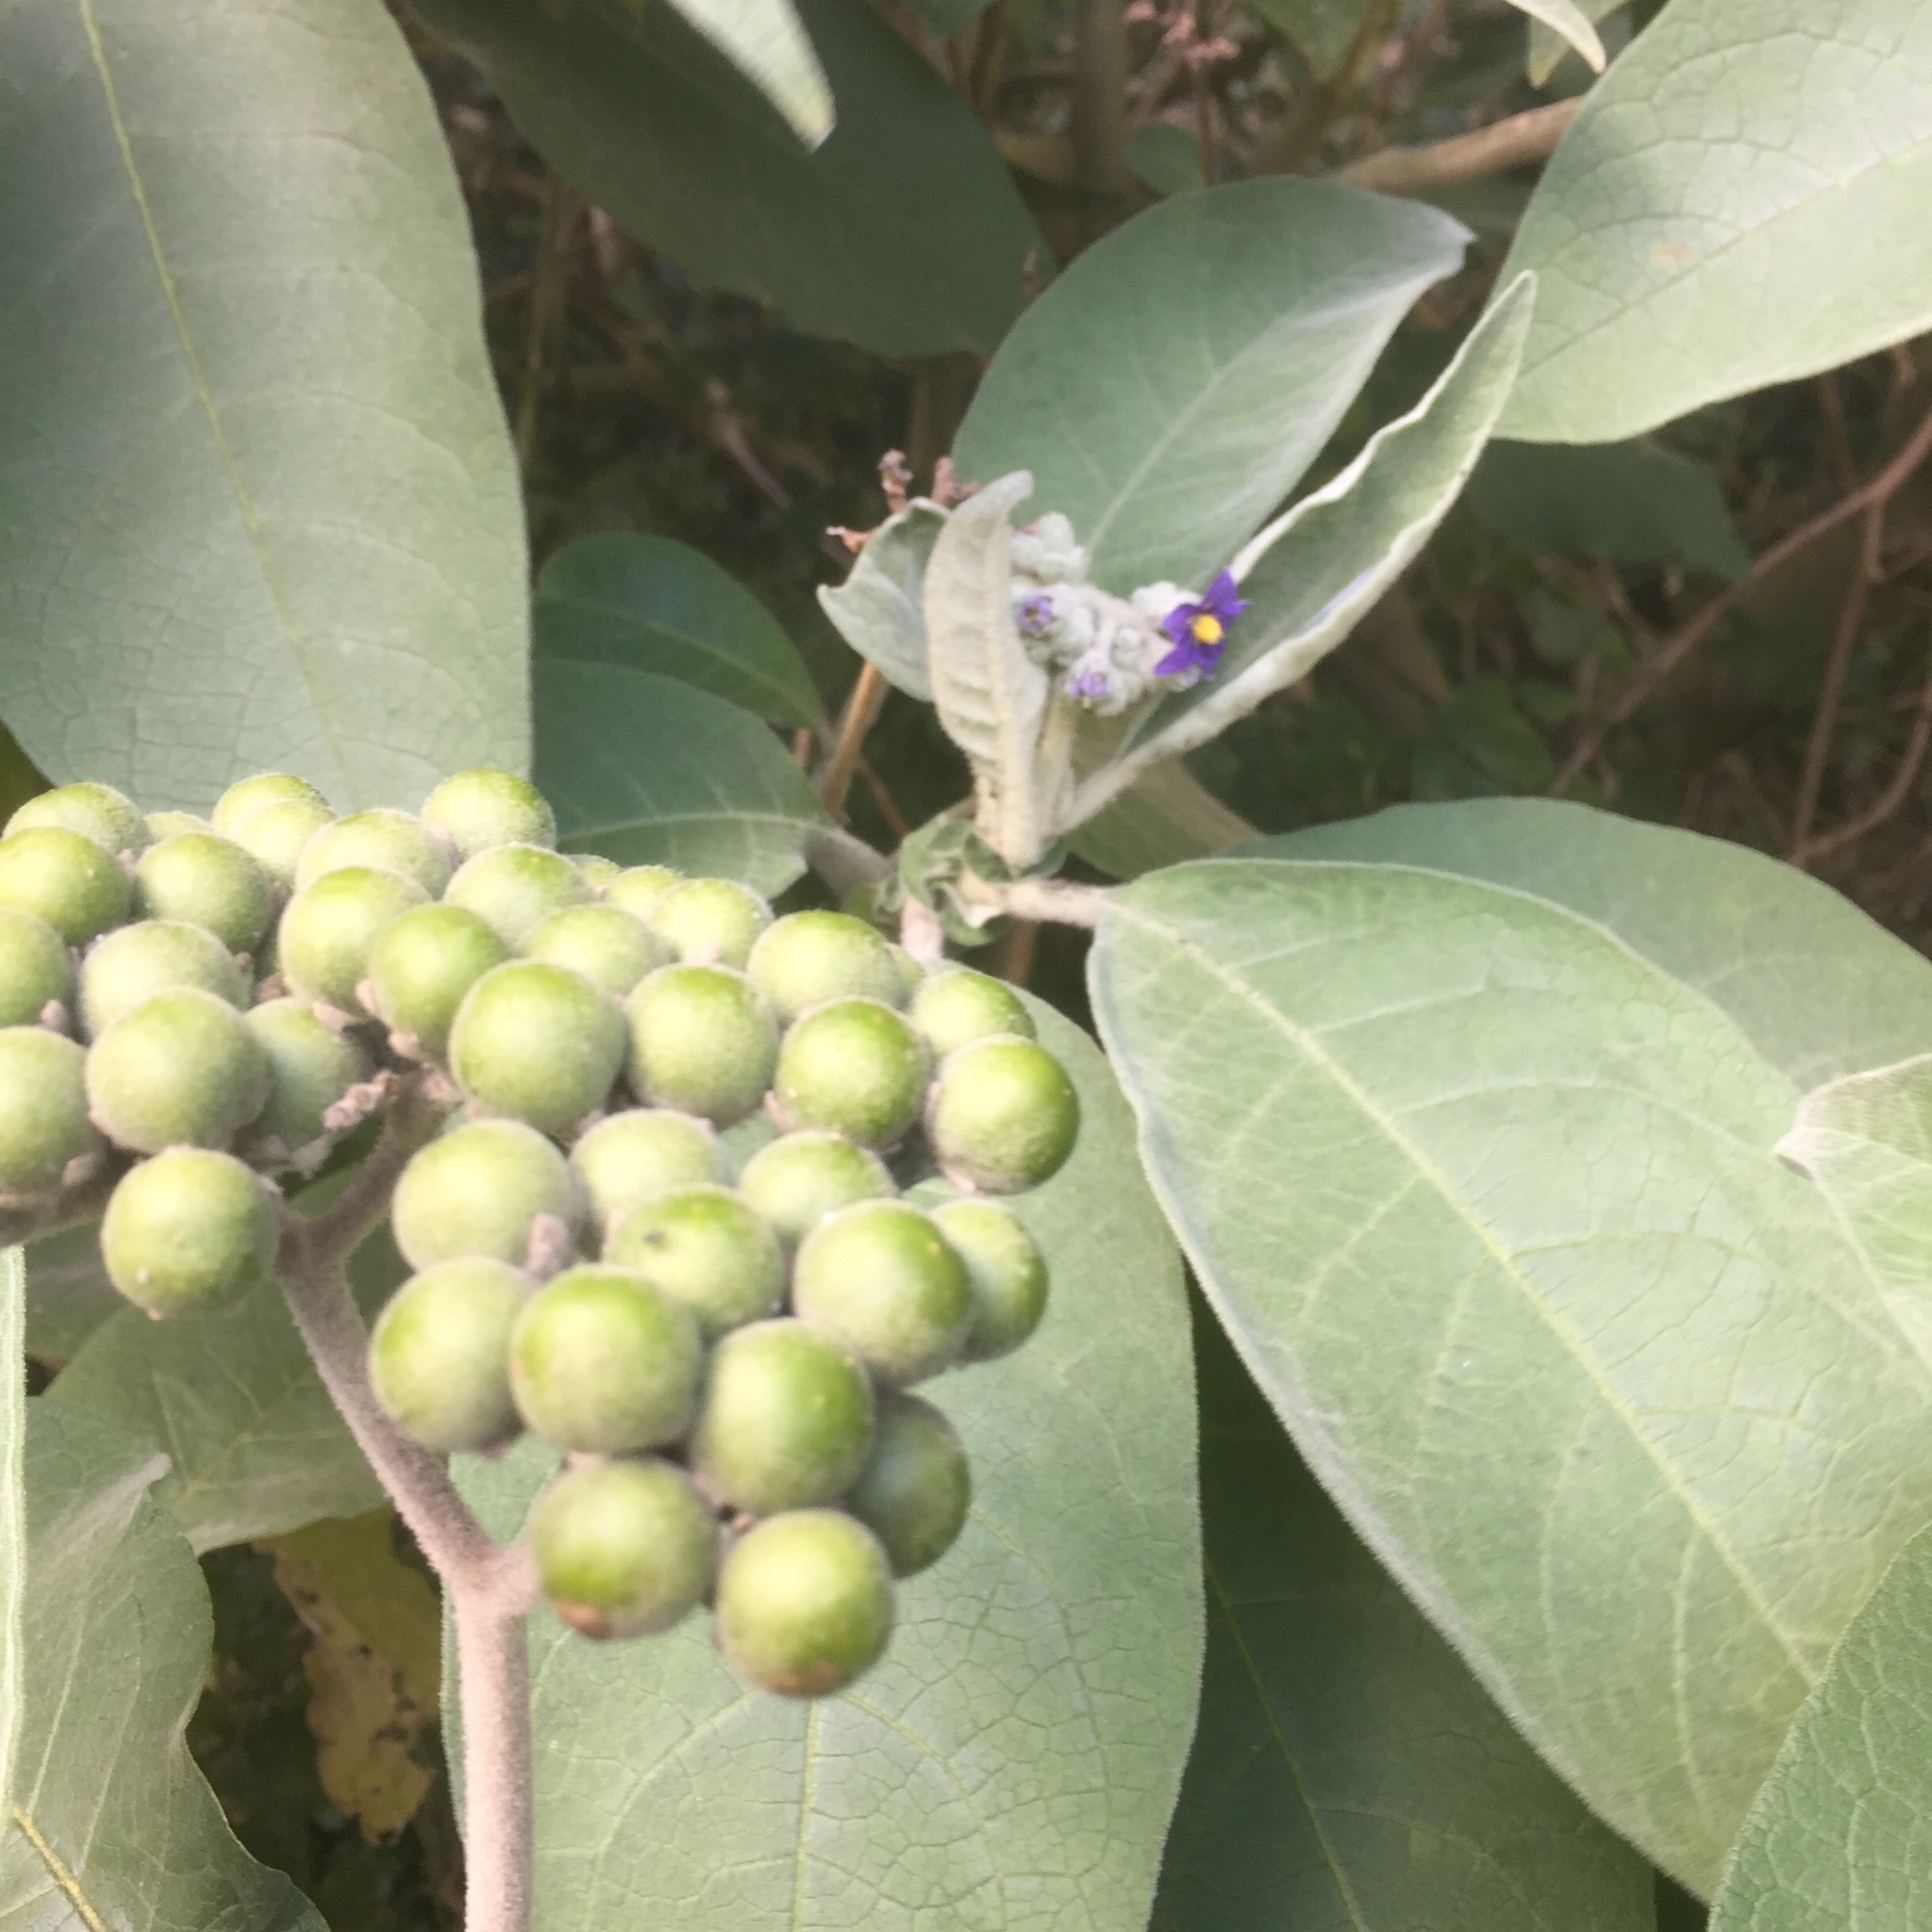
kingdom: Plantae
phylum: Tracheophyta
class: Magnoliopsida
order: Solanales
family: Solanaceae
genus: Solanum
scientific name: Solanum mauritianum
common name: Earleaf nightshade
